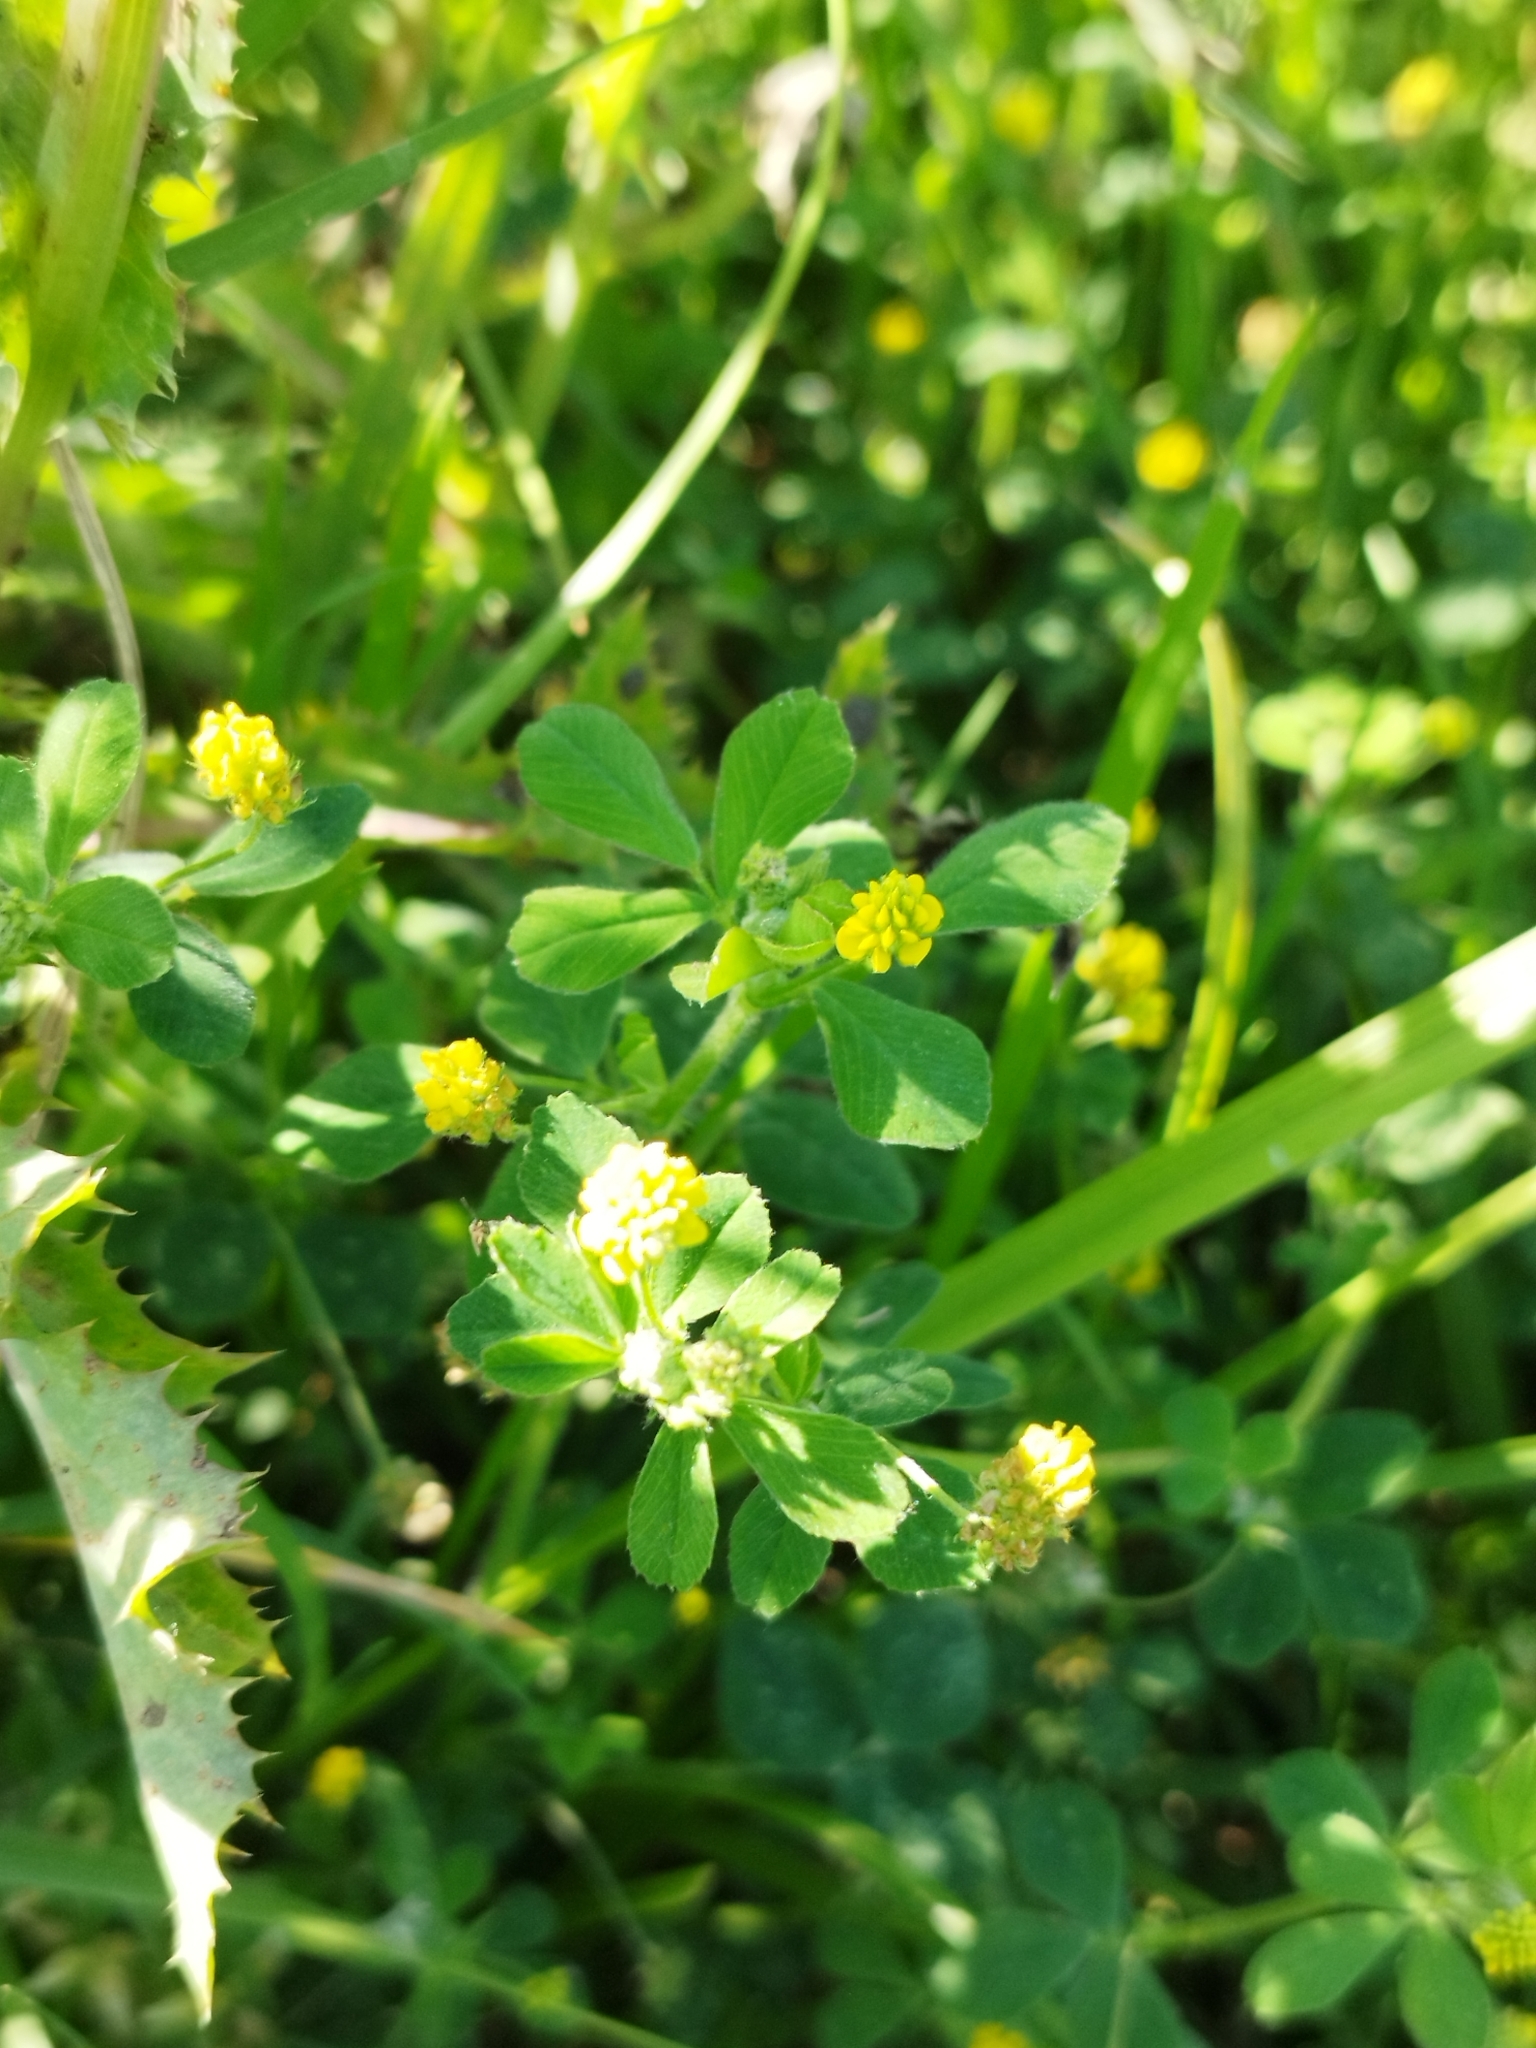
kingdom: Plantae
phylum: Tracheophyta
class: Magnoliopsida
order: Fabales
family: Fabaceae
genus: Medicago
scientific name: Medicago lupulina
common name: Black medick
